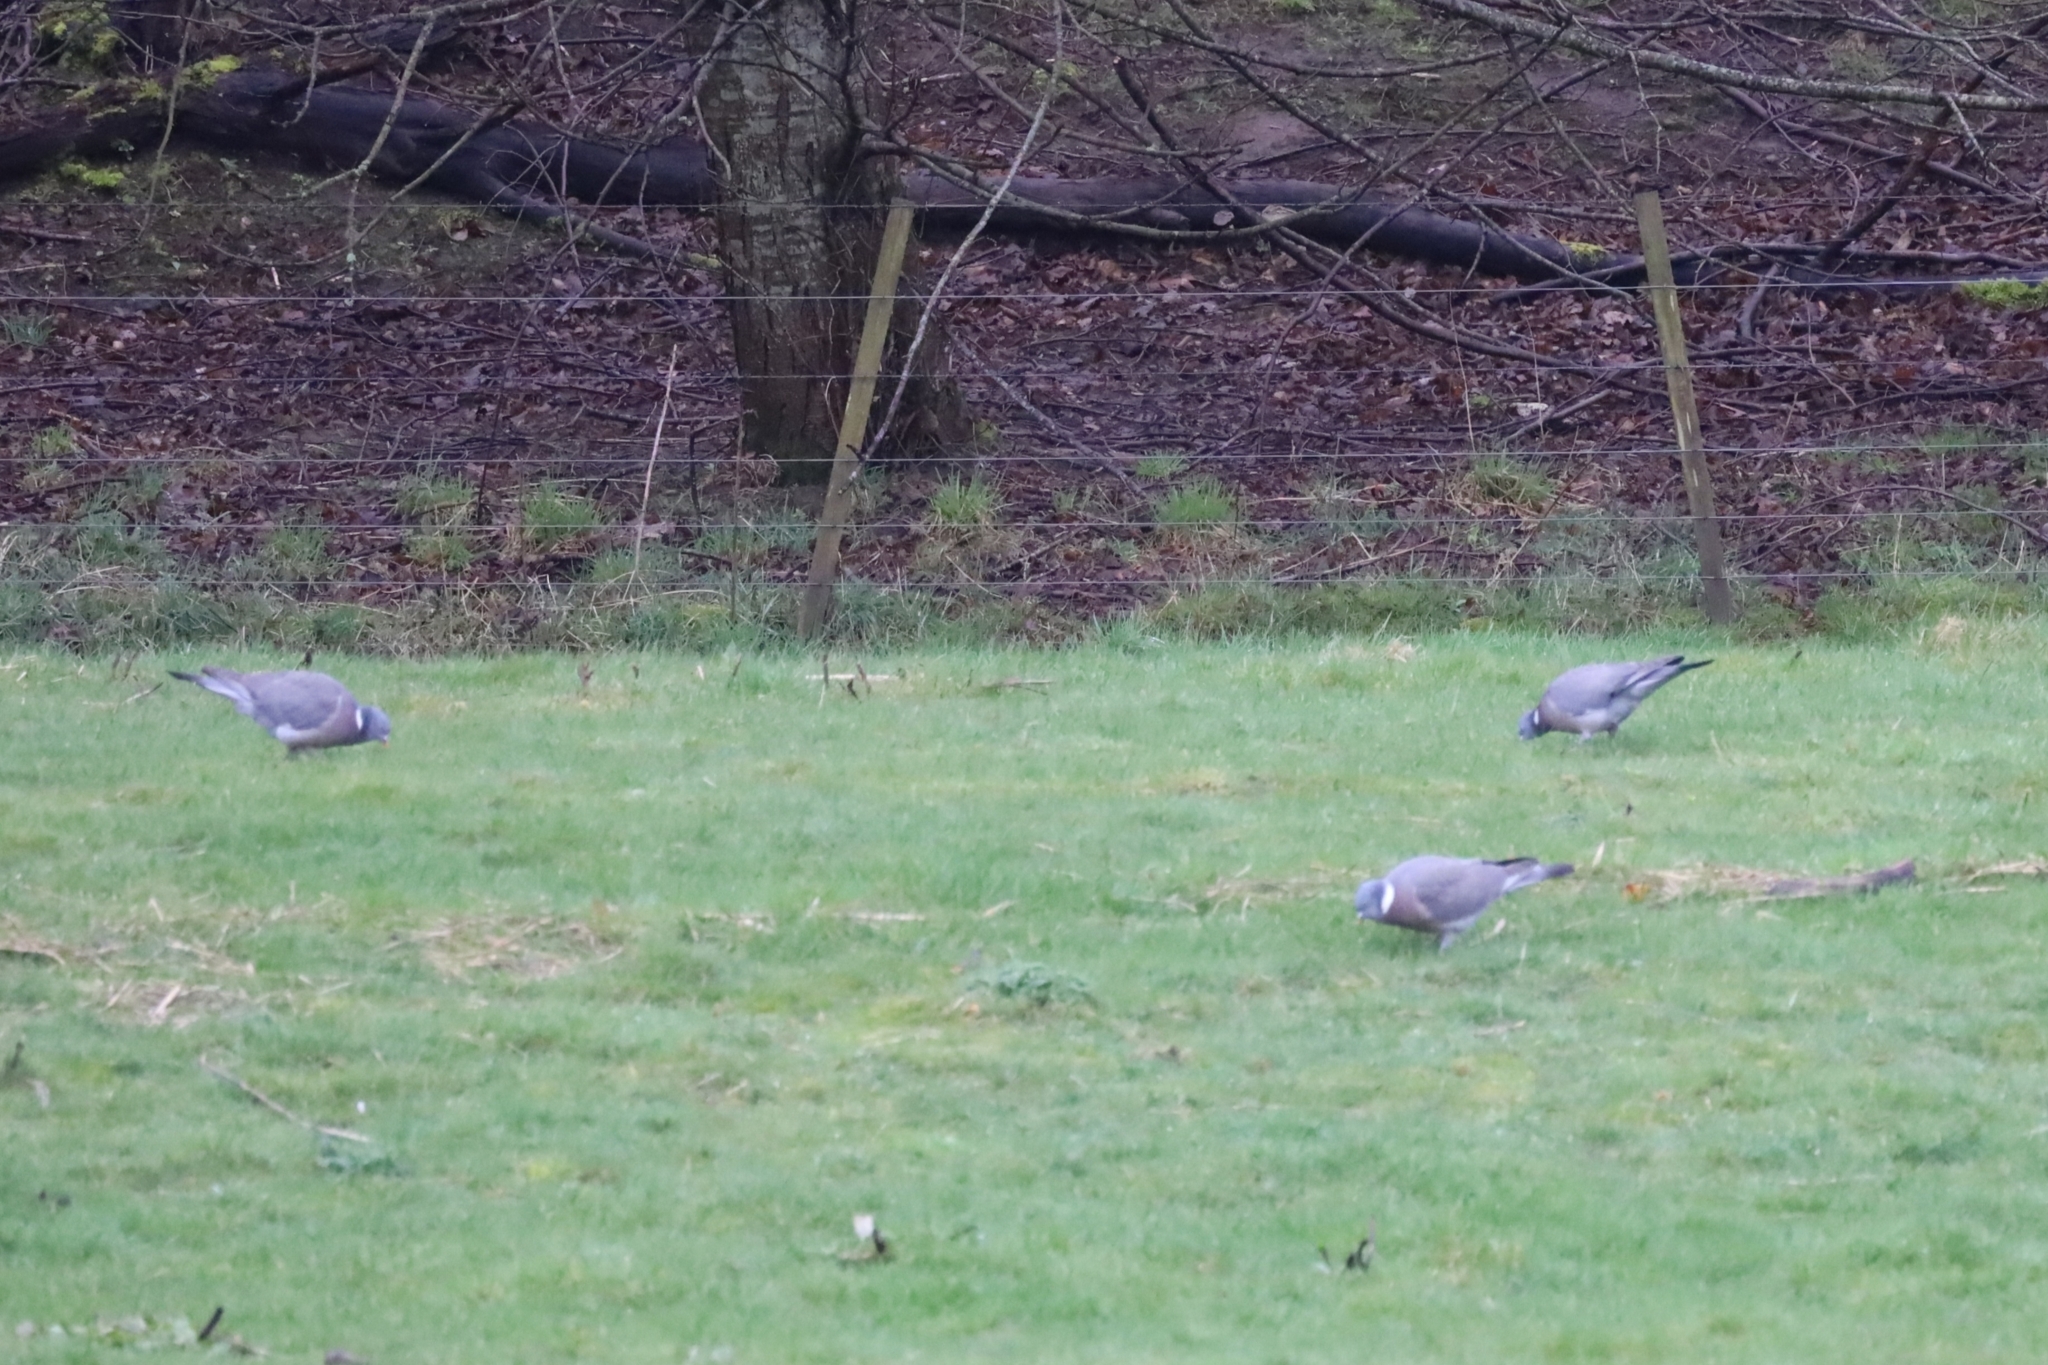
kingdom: Animalia
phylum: Chordata
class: Aves
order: Columbiformes
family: Columbidae
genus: Columba
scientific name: Columba palumbus
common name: Common wood pigeon
